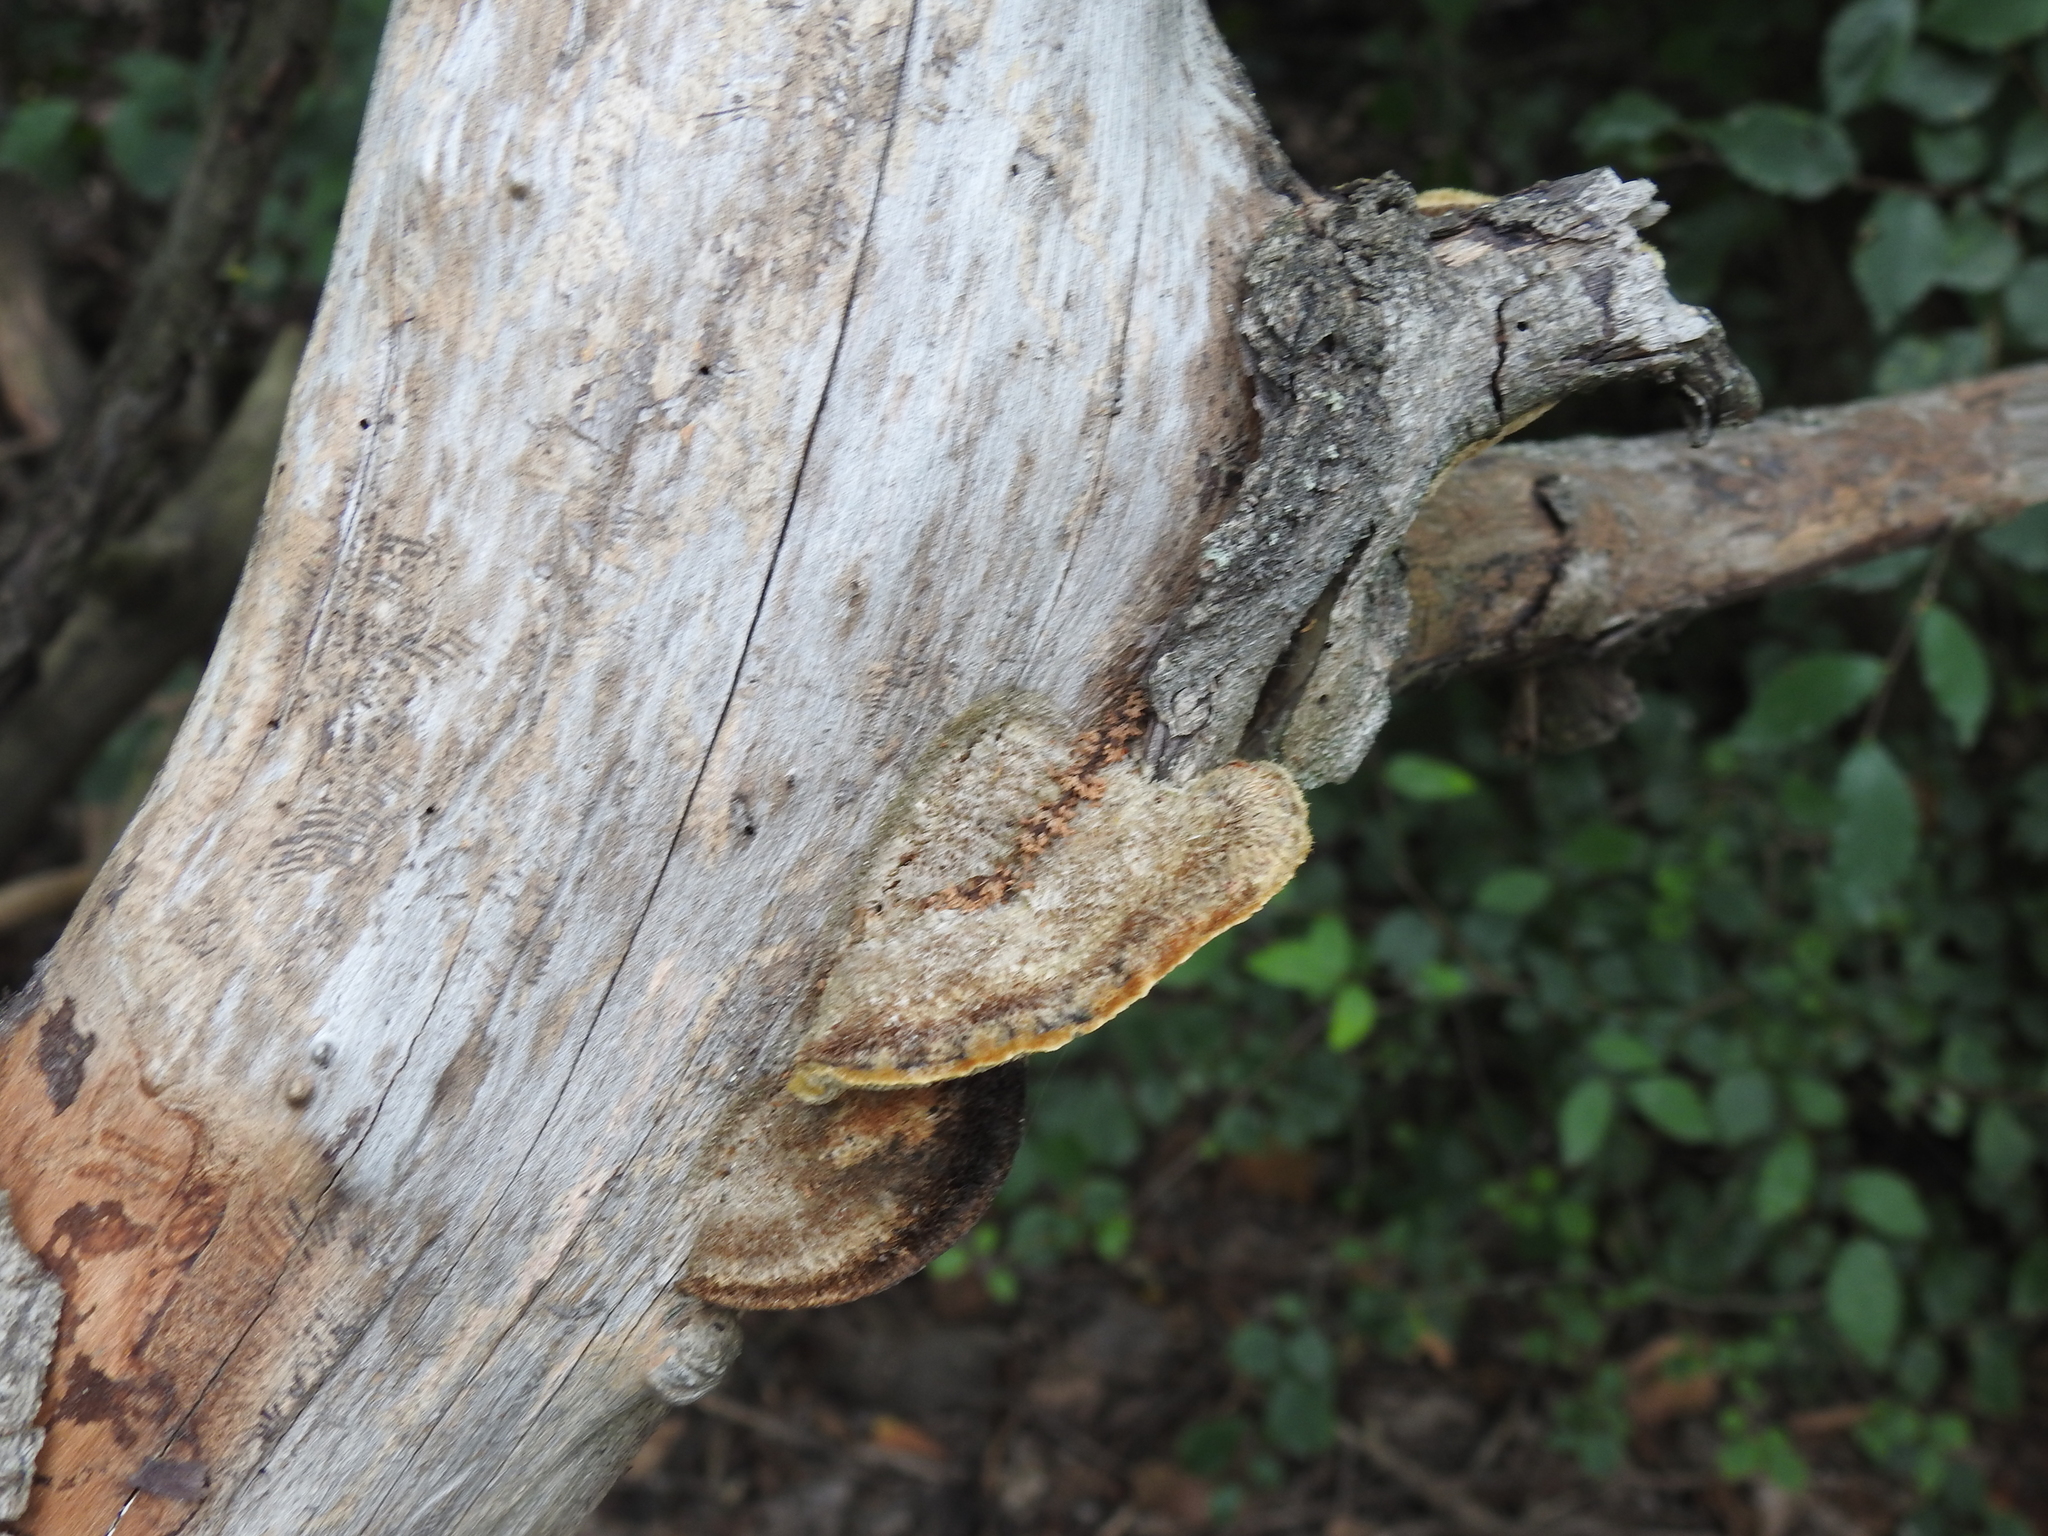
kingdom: Fungi
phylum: Basidiomycota
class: Agaricomycetes
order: Polyporales
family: Polyporaceae
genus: Coriolopsis
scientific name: Coriolopsis gallica
